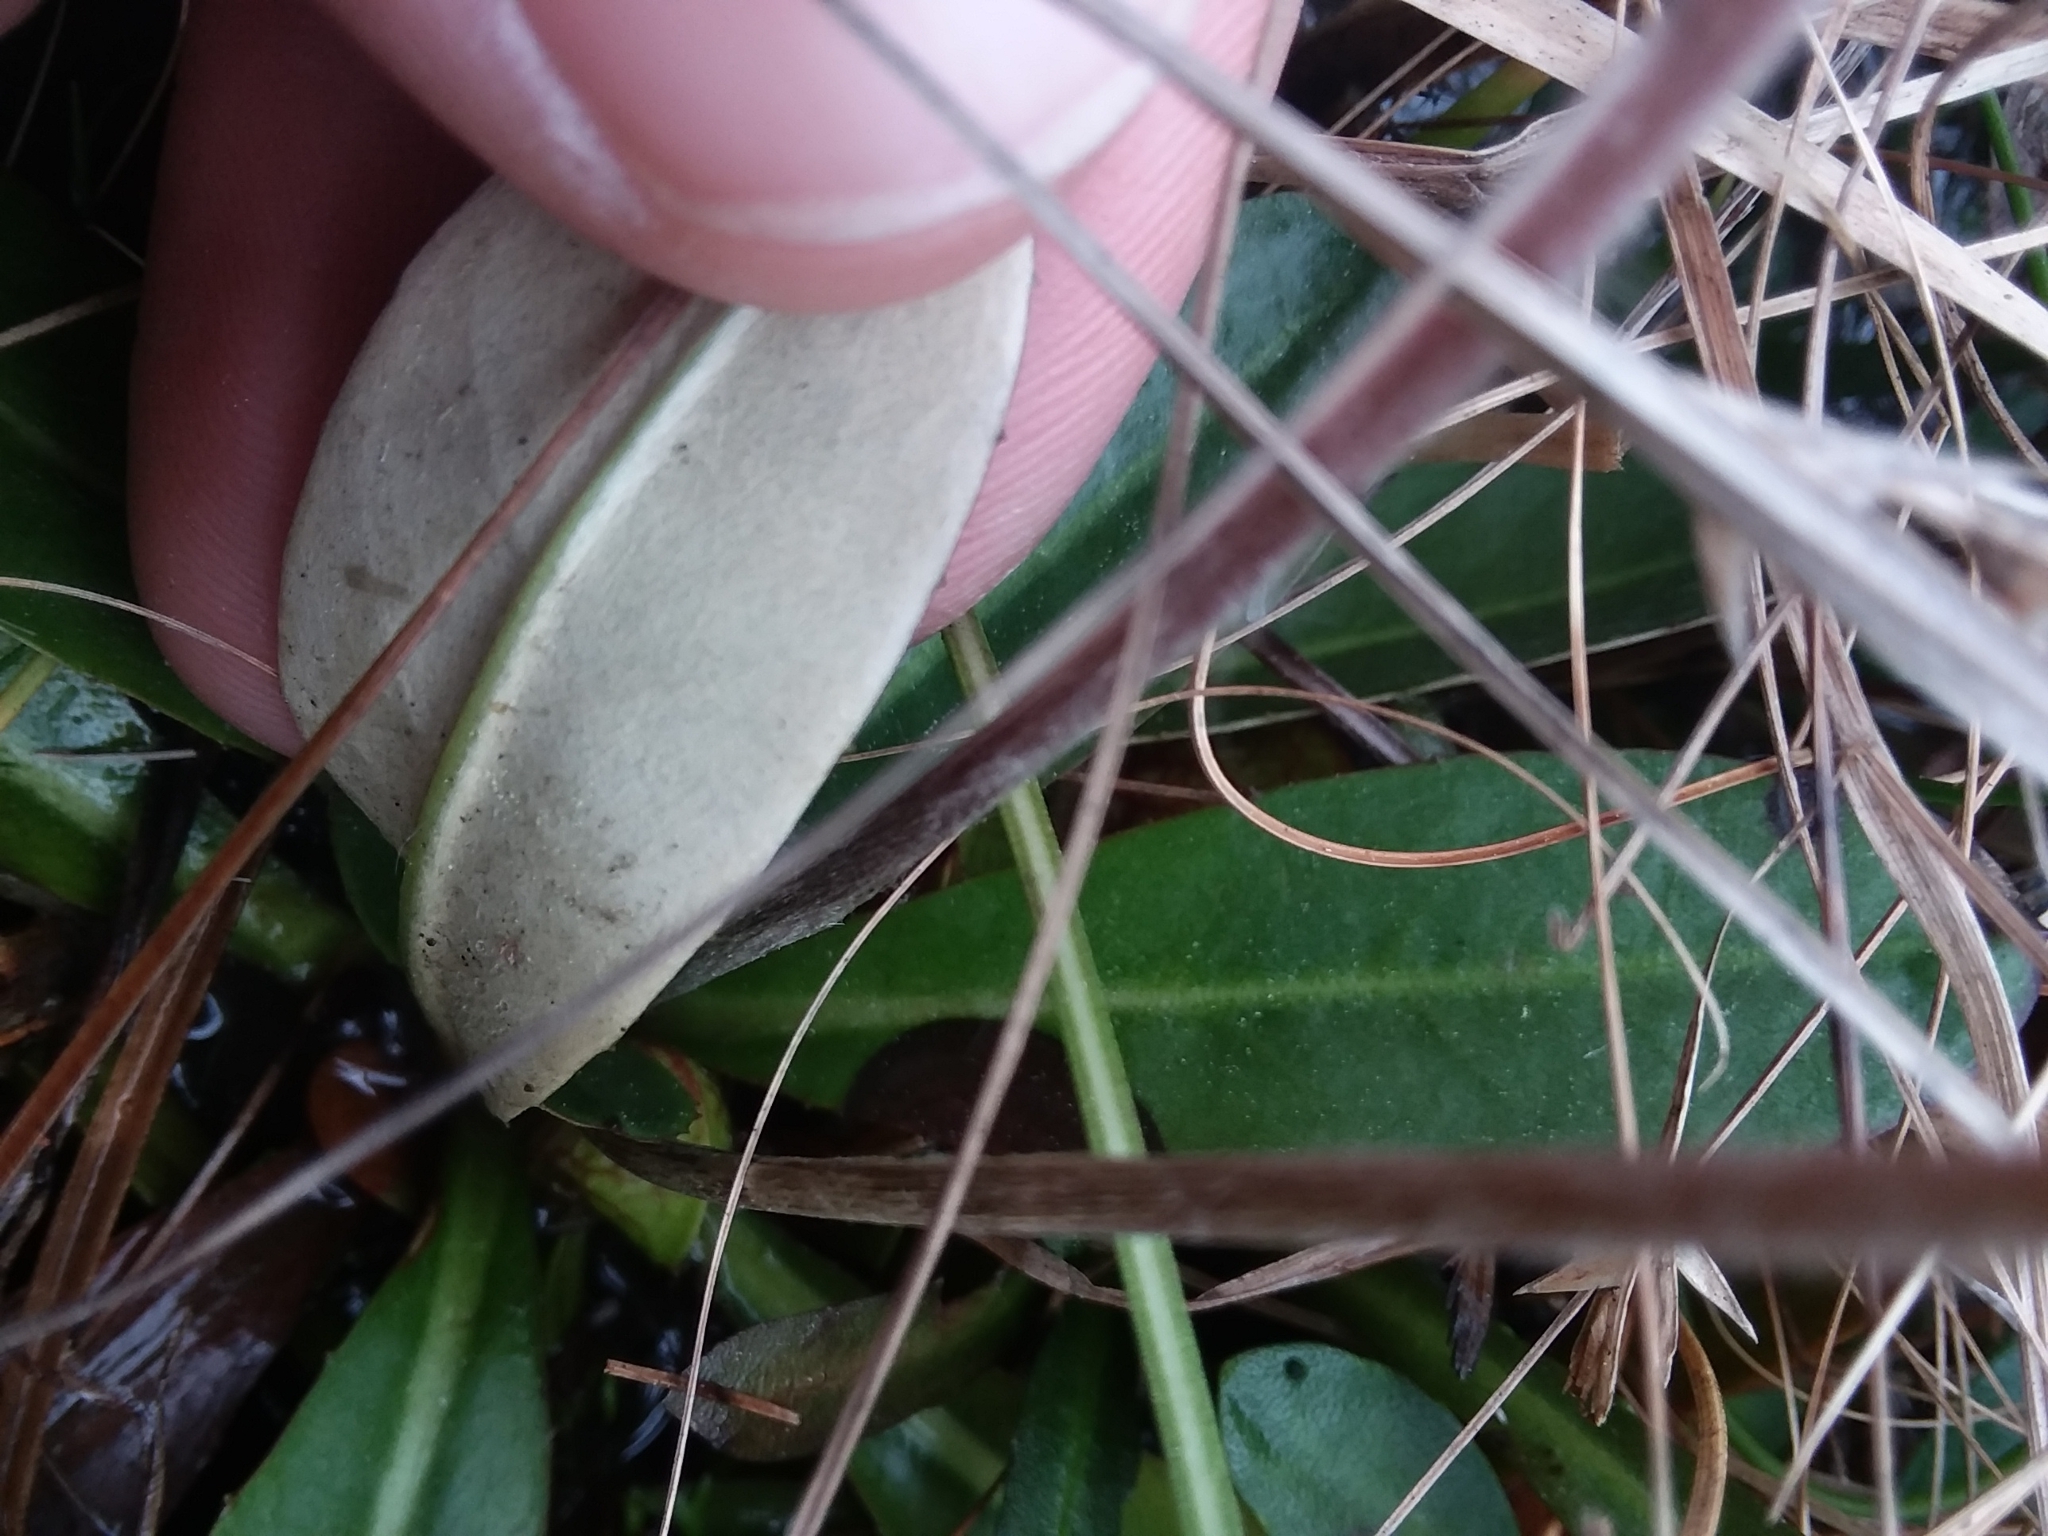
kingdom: Plantae
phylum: Tracheophyta
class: Magnoliopsida
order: Asterales
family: Asteraceae
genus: Chaptalia
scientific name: Chaptalia tomentosa
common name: Woolly sunbonnet
